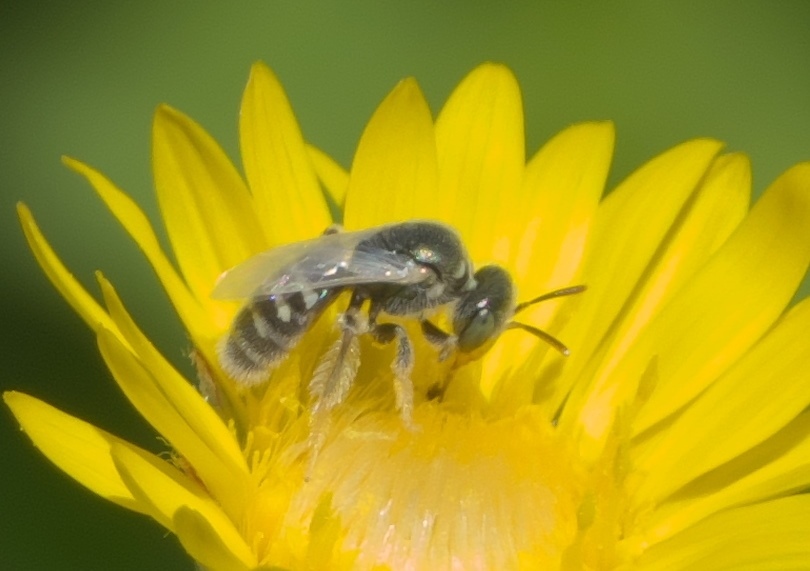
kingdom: Animalia
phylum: Arthropoda
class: Insecta
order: Hymenoptera
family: Andrenidae
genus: Perdita
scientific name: Perdita albipennis
